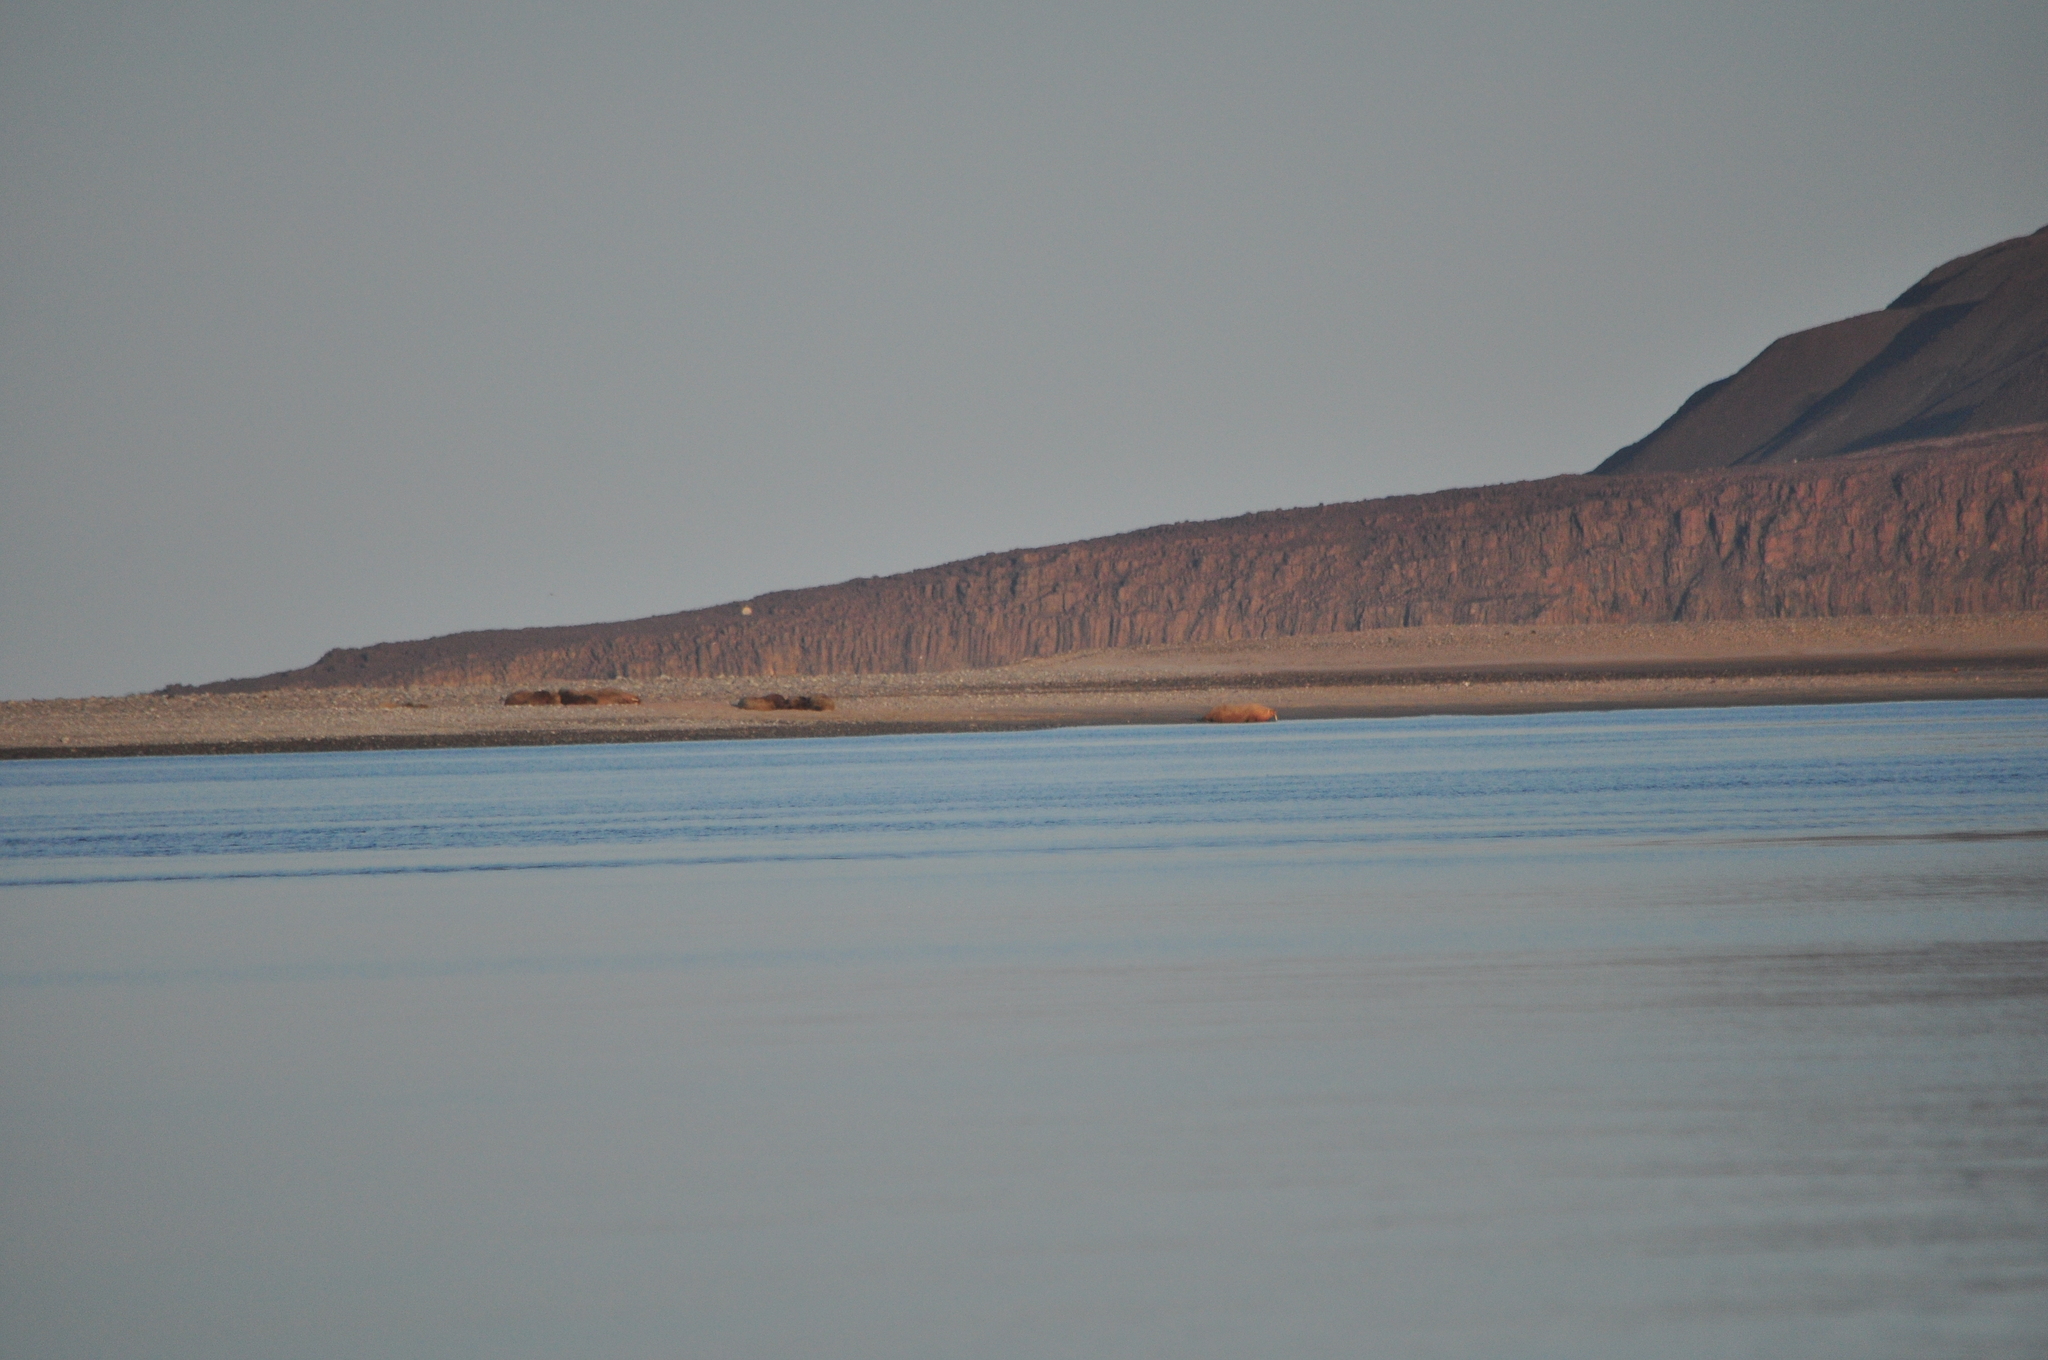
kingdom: Animalia
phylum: Chordata
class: Mammalia
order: Carnivora
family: Odobenidae
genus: Odobenus
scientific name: Odobenus rosmarus
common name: Walrus
